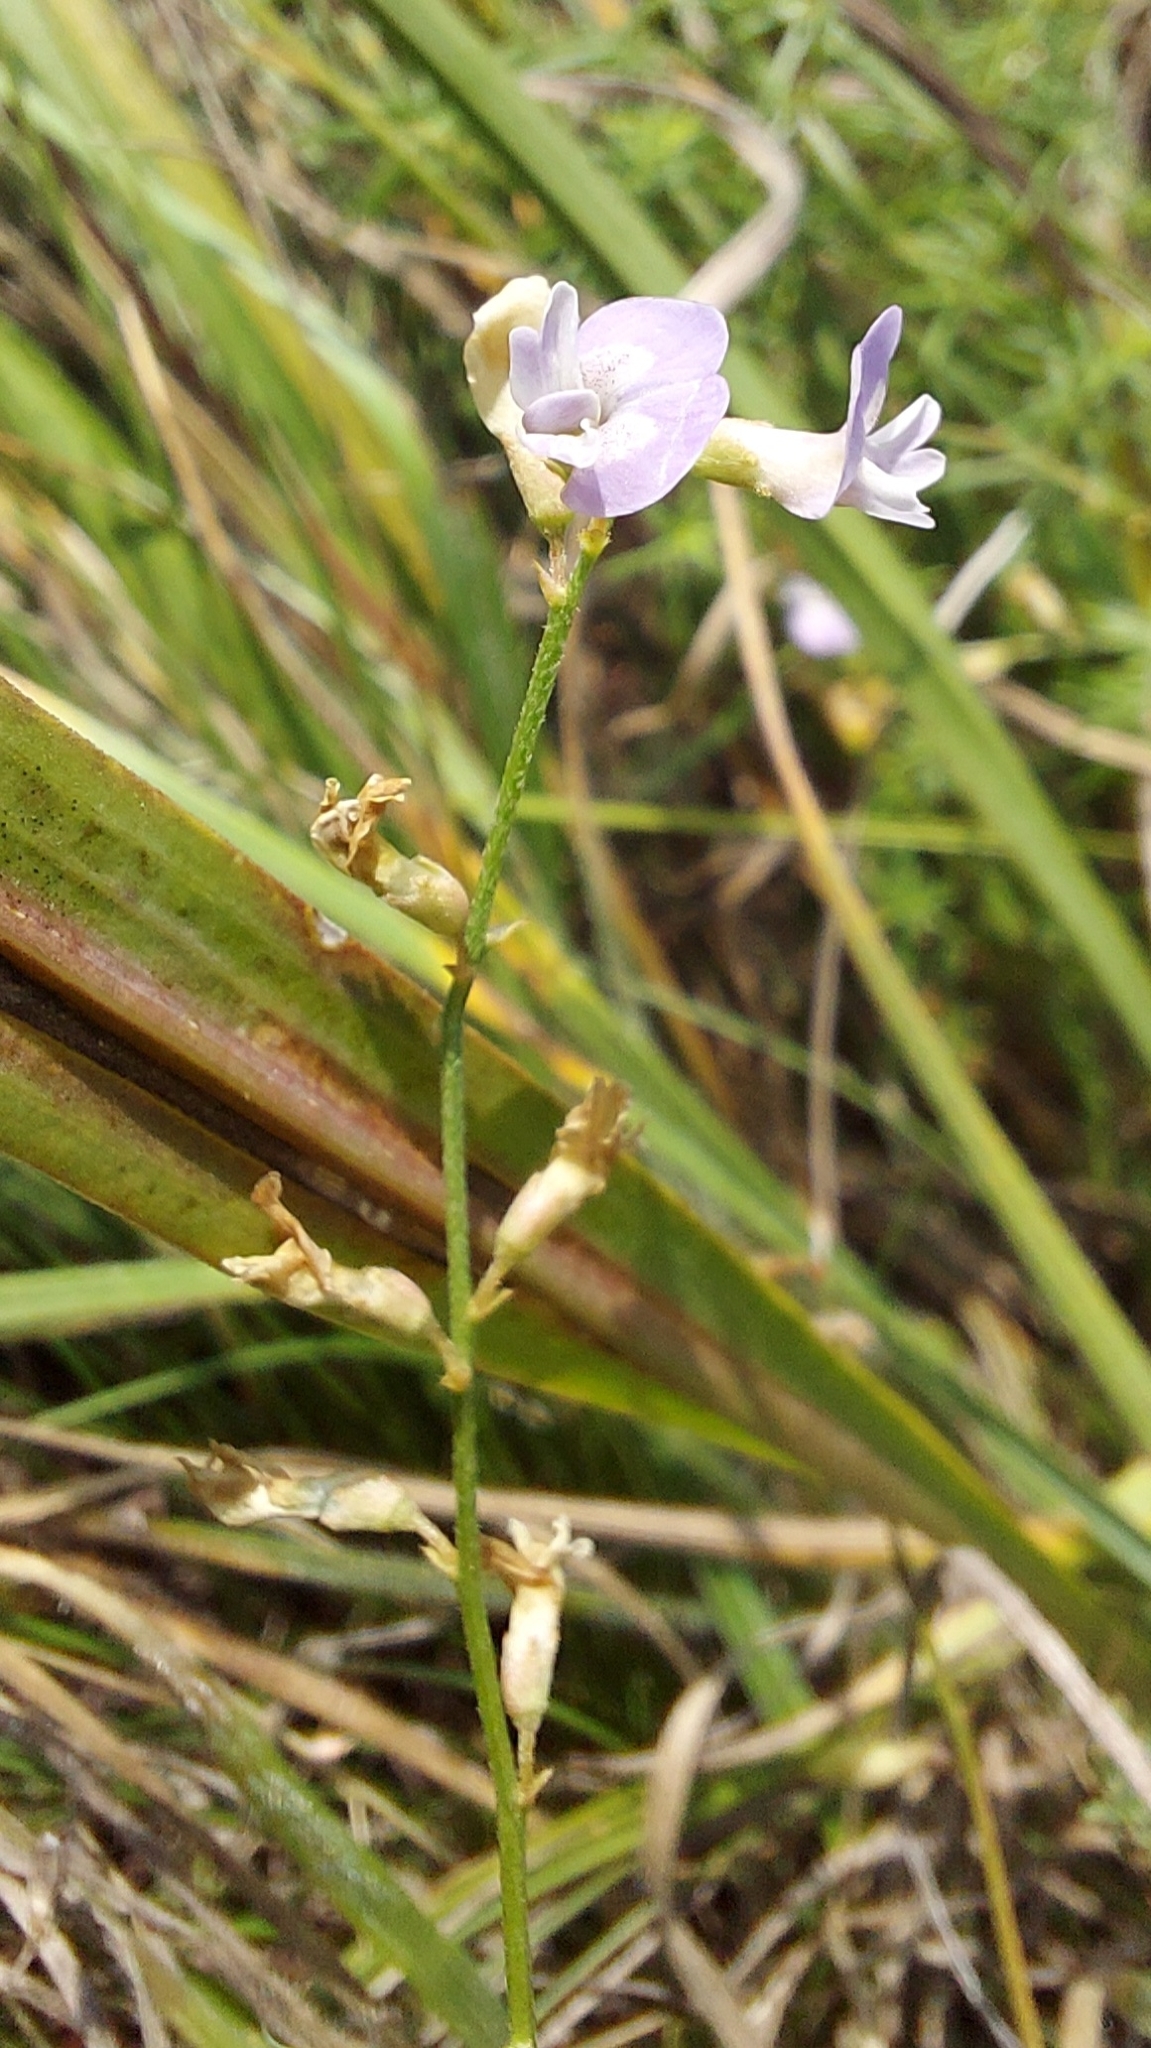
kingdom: Plantae
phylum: Tracheophyta
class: Magnoliopsida
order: Fabales
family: Fabaceae
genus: Astragalus
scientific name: Astragalus austriacus
